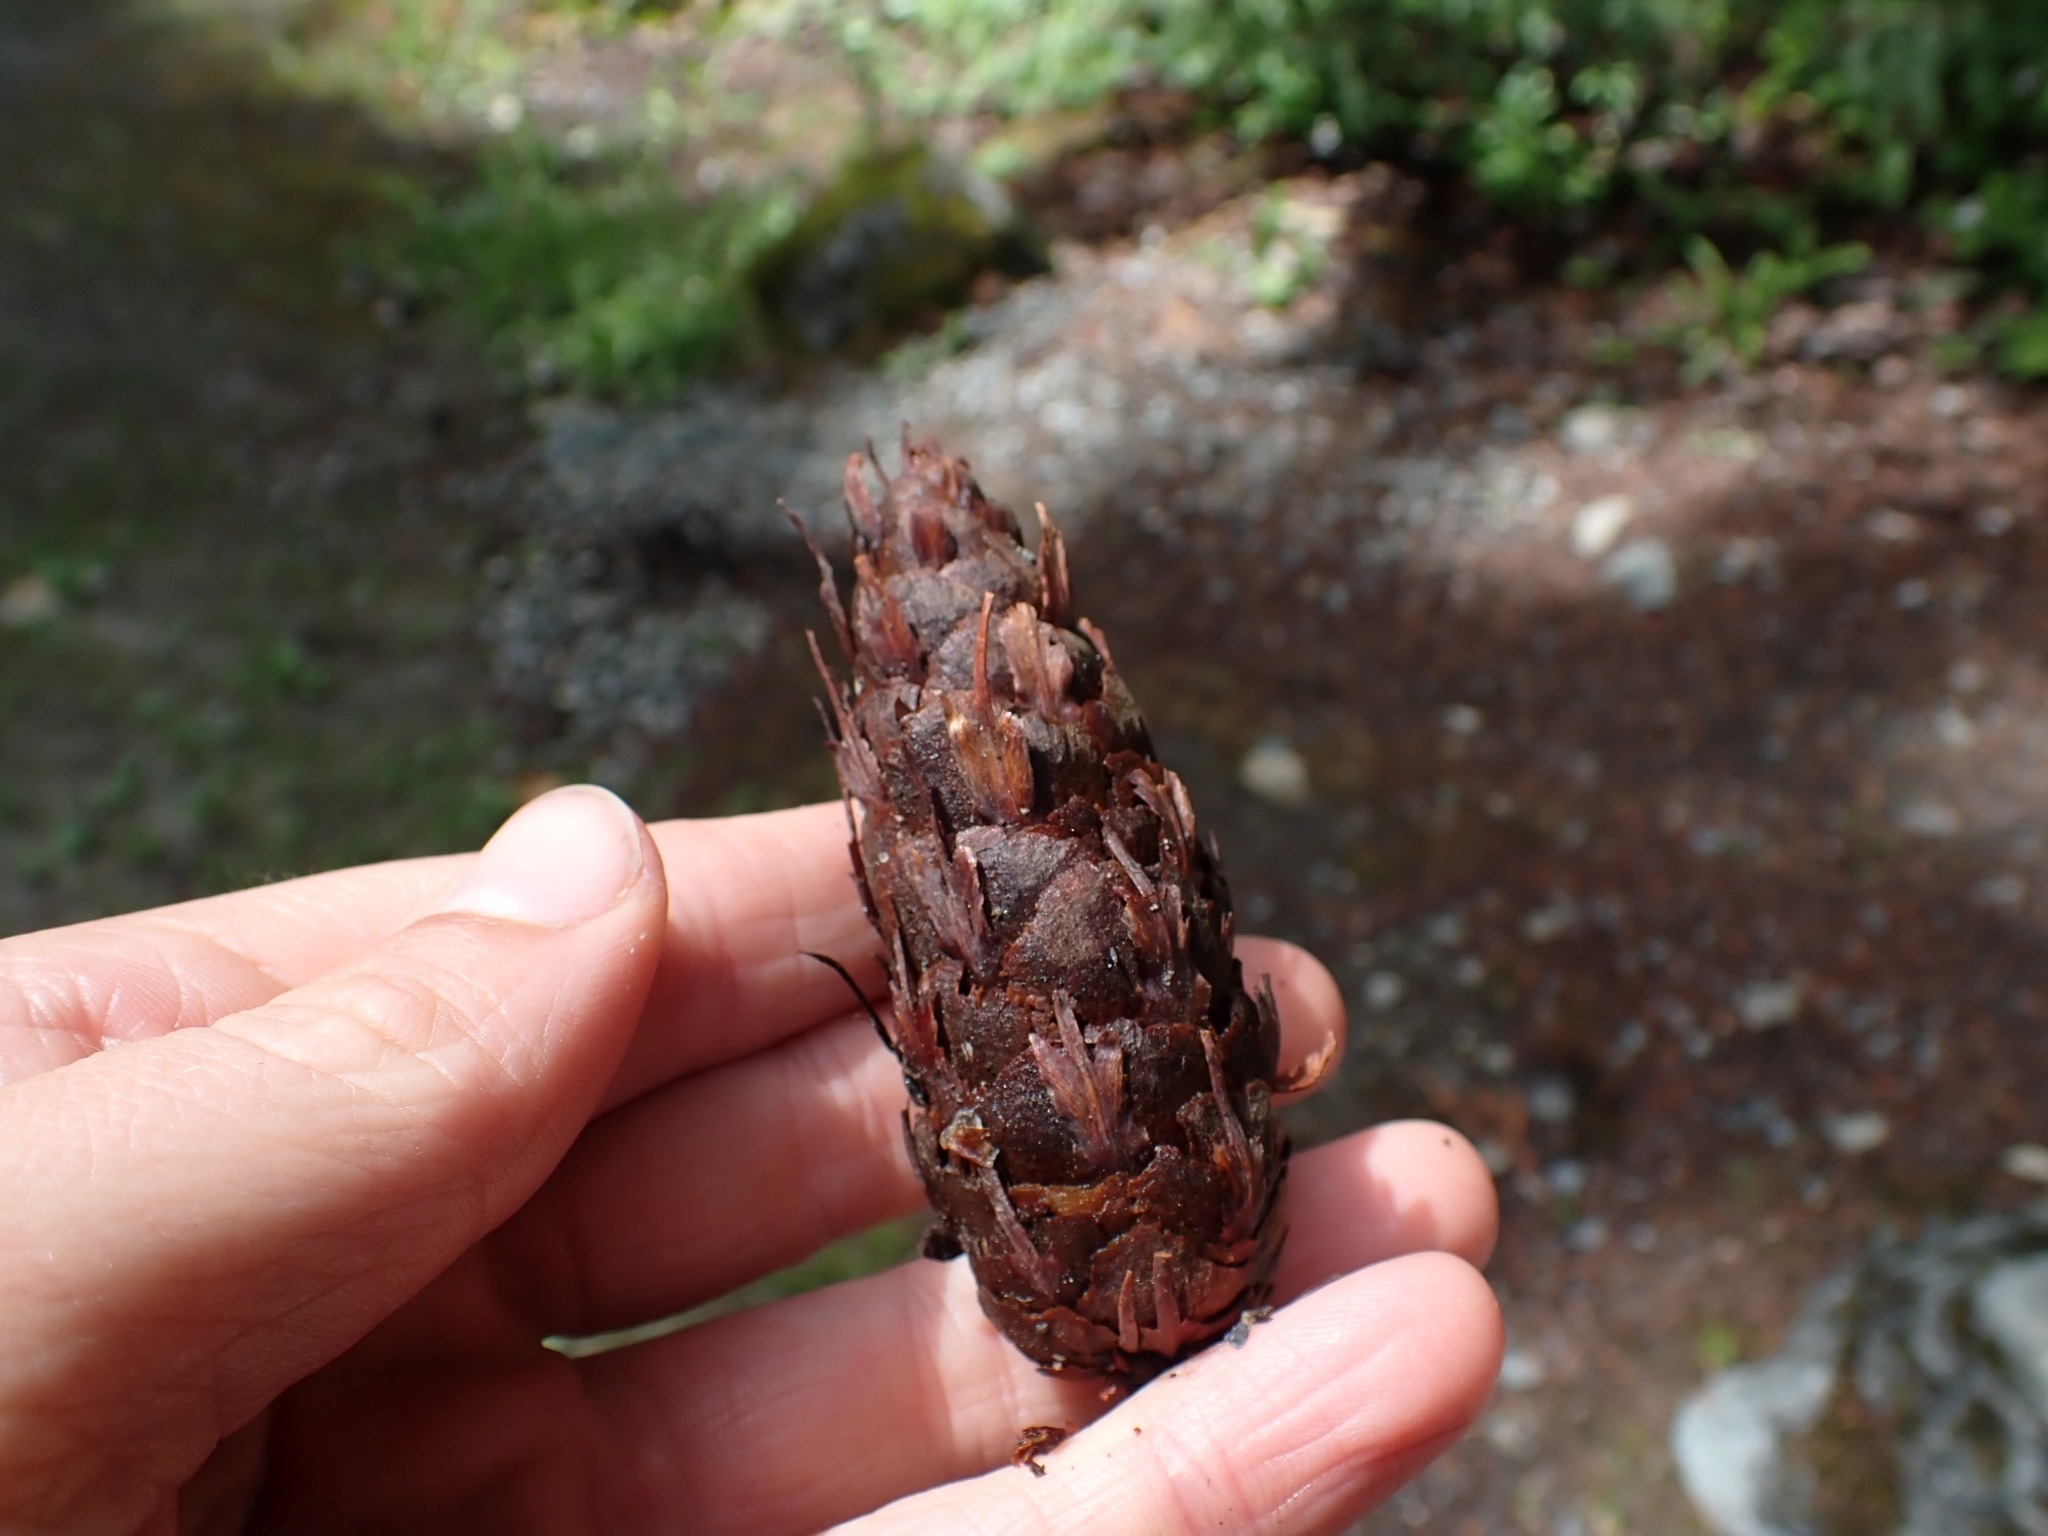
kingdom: Plantae
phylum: Tracheophyta
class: Pinopsida
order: Pinales
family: Pinaceae
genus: Pseudotsuga
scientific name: Pseudotsuga menziesii
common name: Douglas fir
